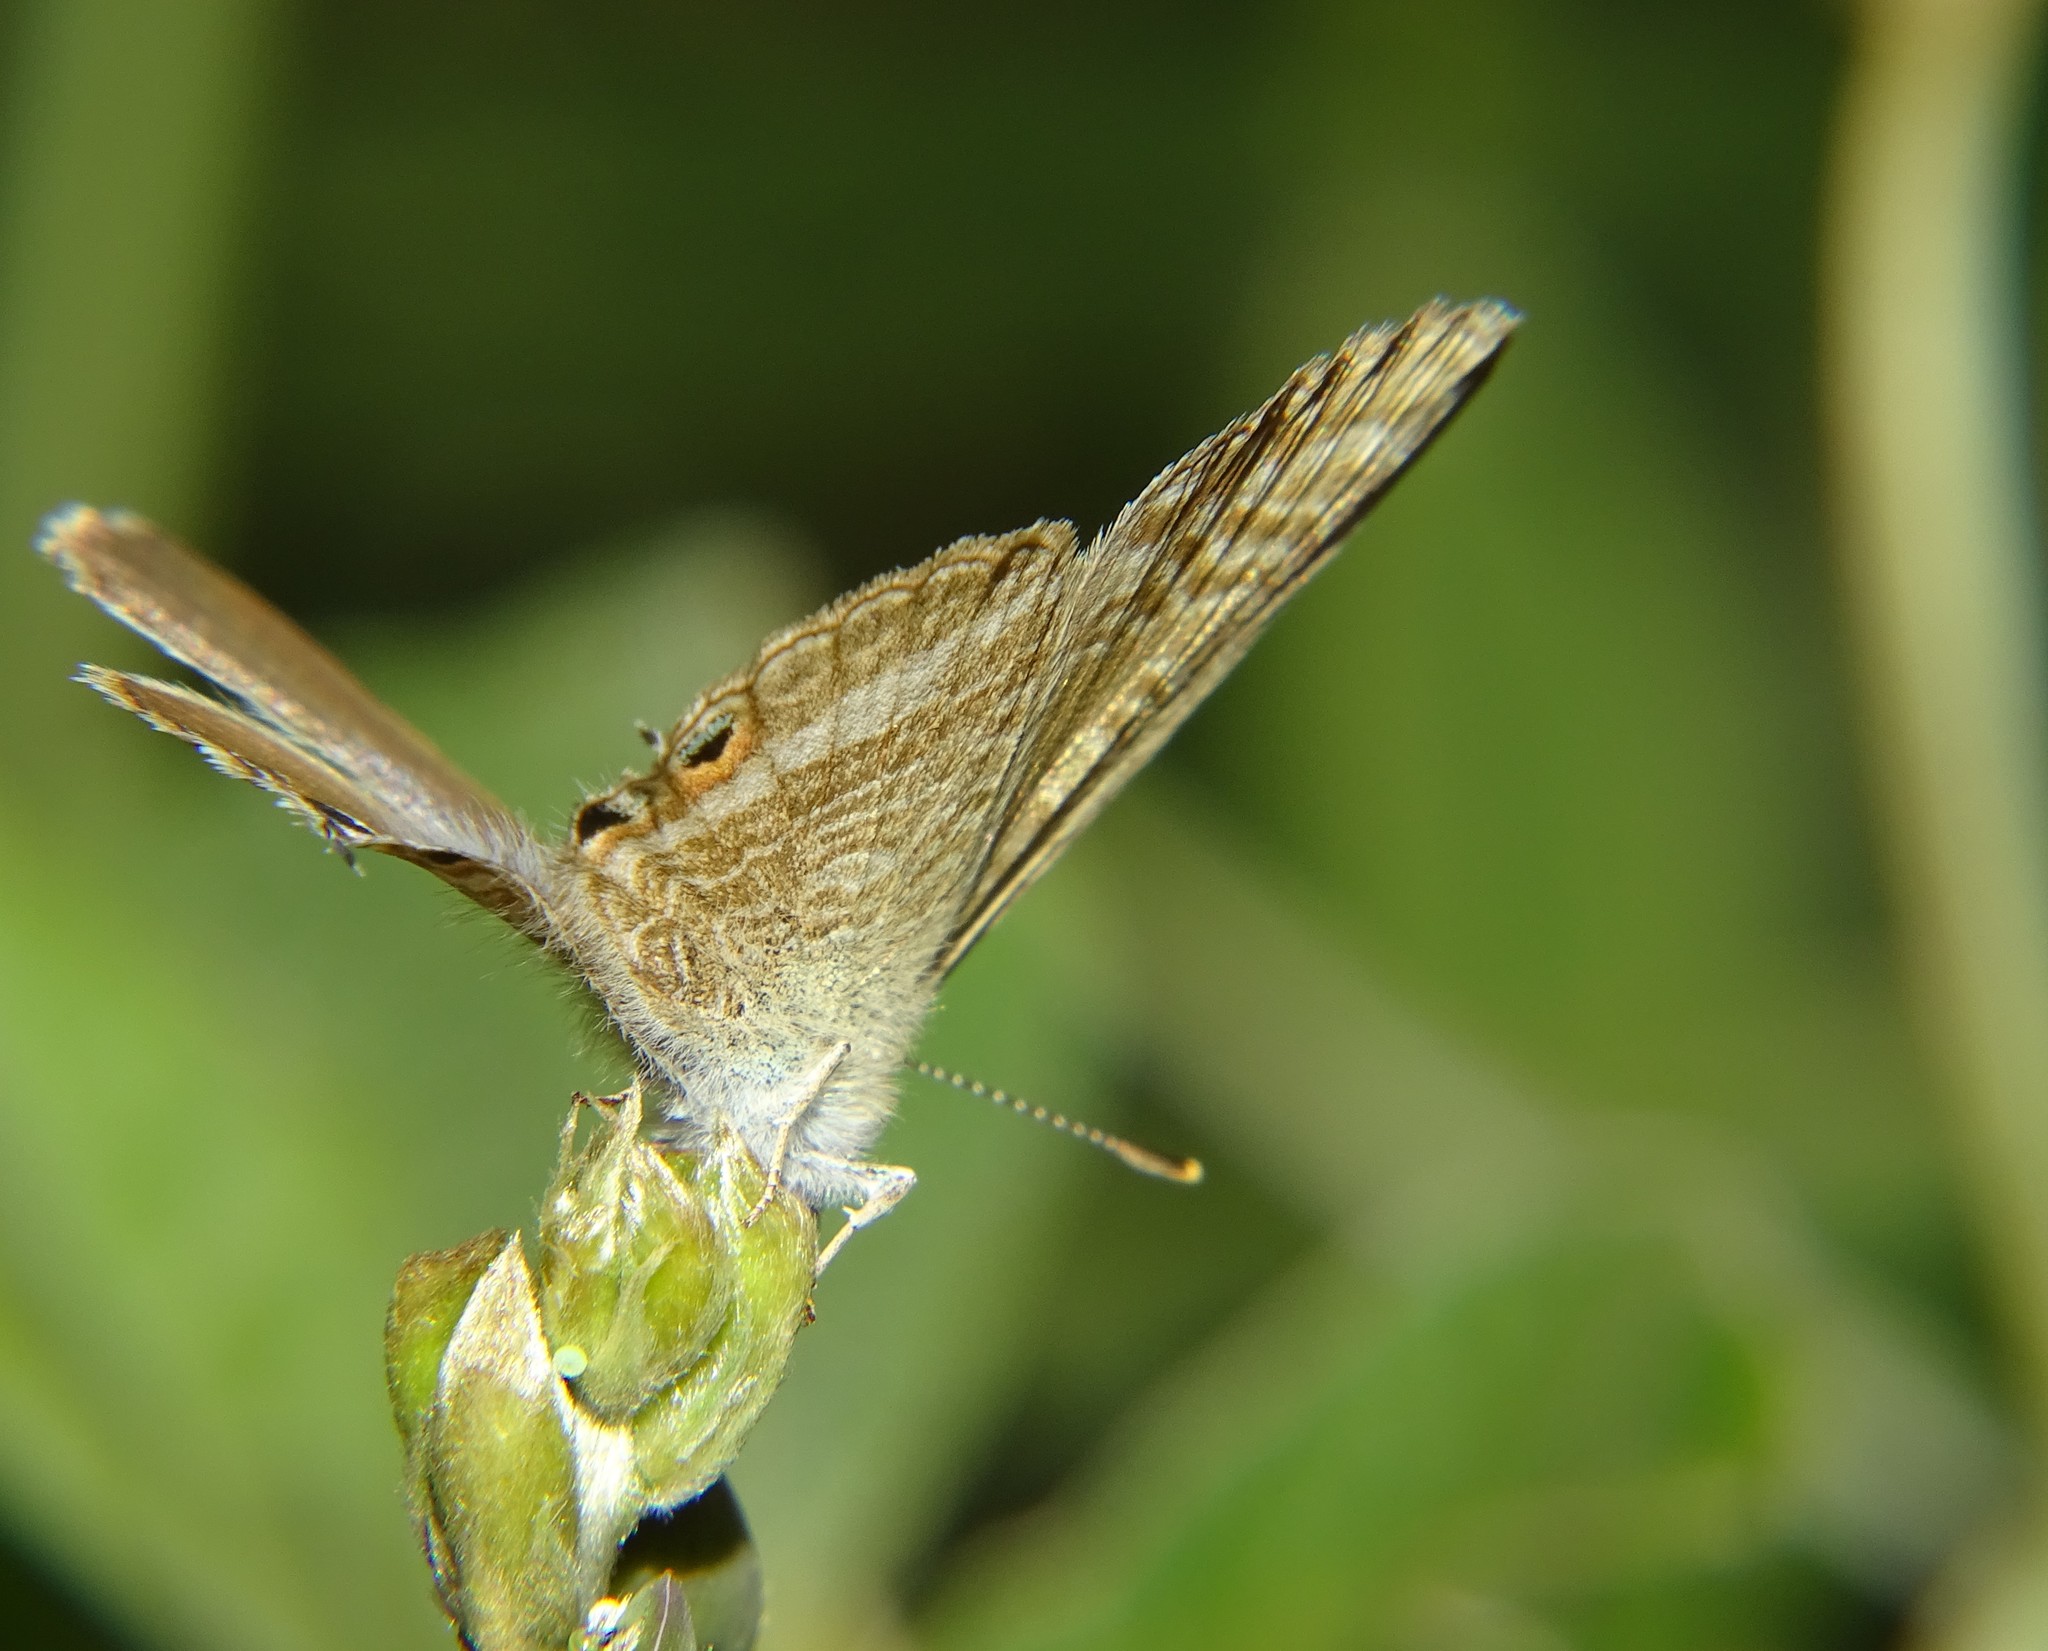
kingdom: Animalia
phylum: Arthropoda
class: Insecta
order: Lepidoptera
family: Lycaenidae
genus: Lampides
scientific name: Lampides boeticus
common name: Long-tailed blue
